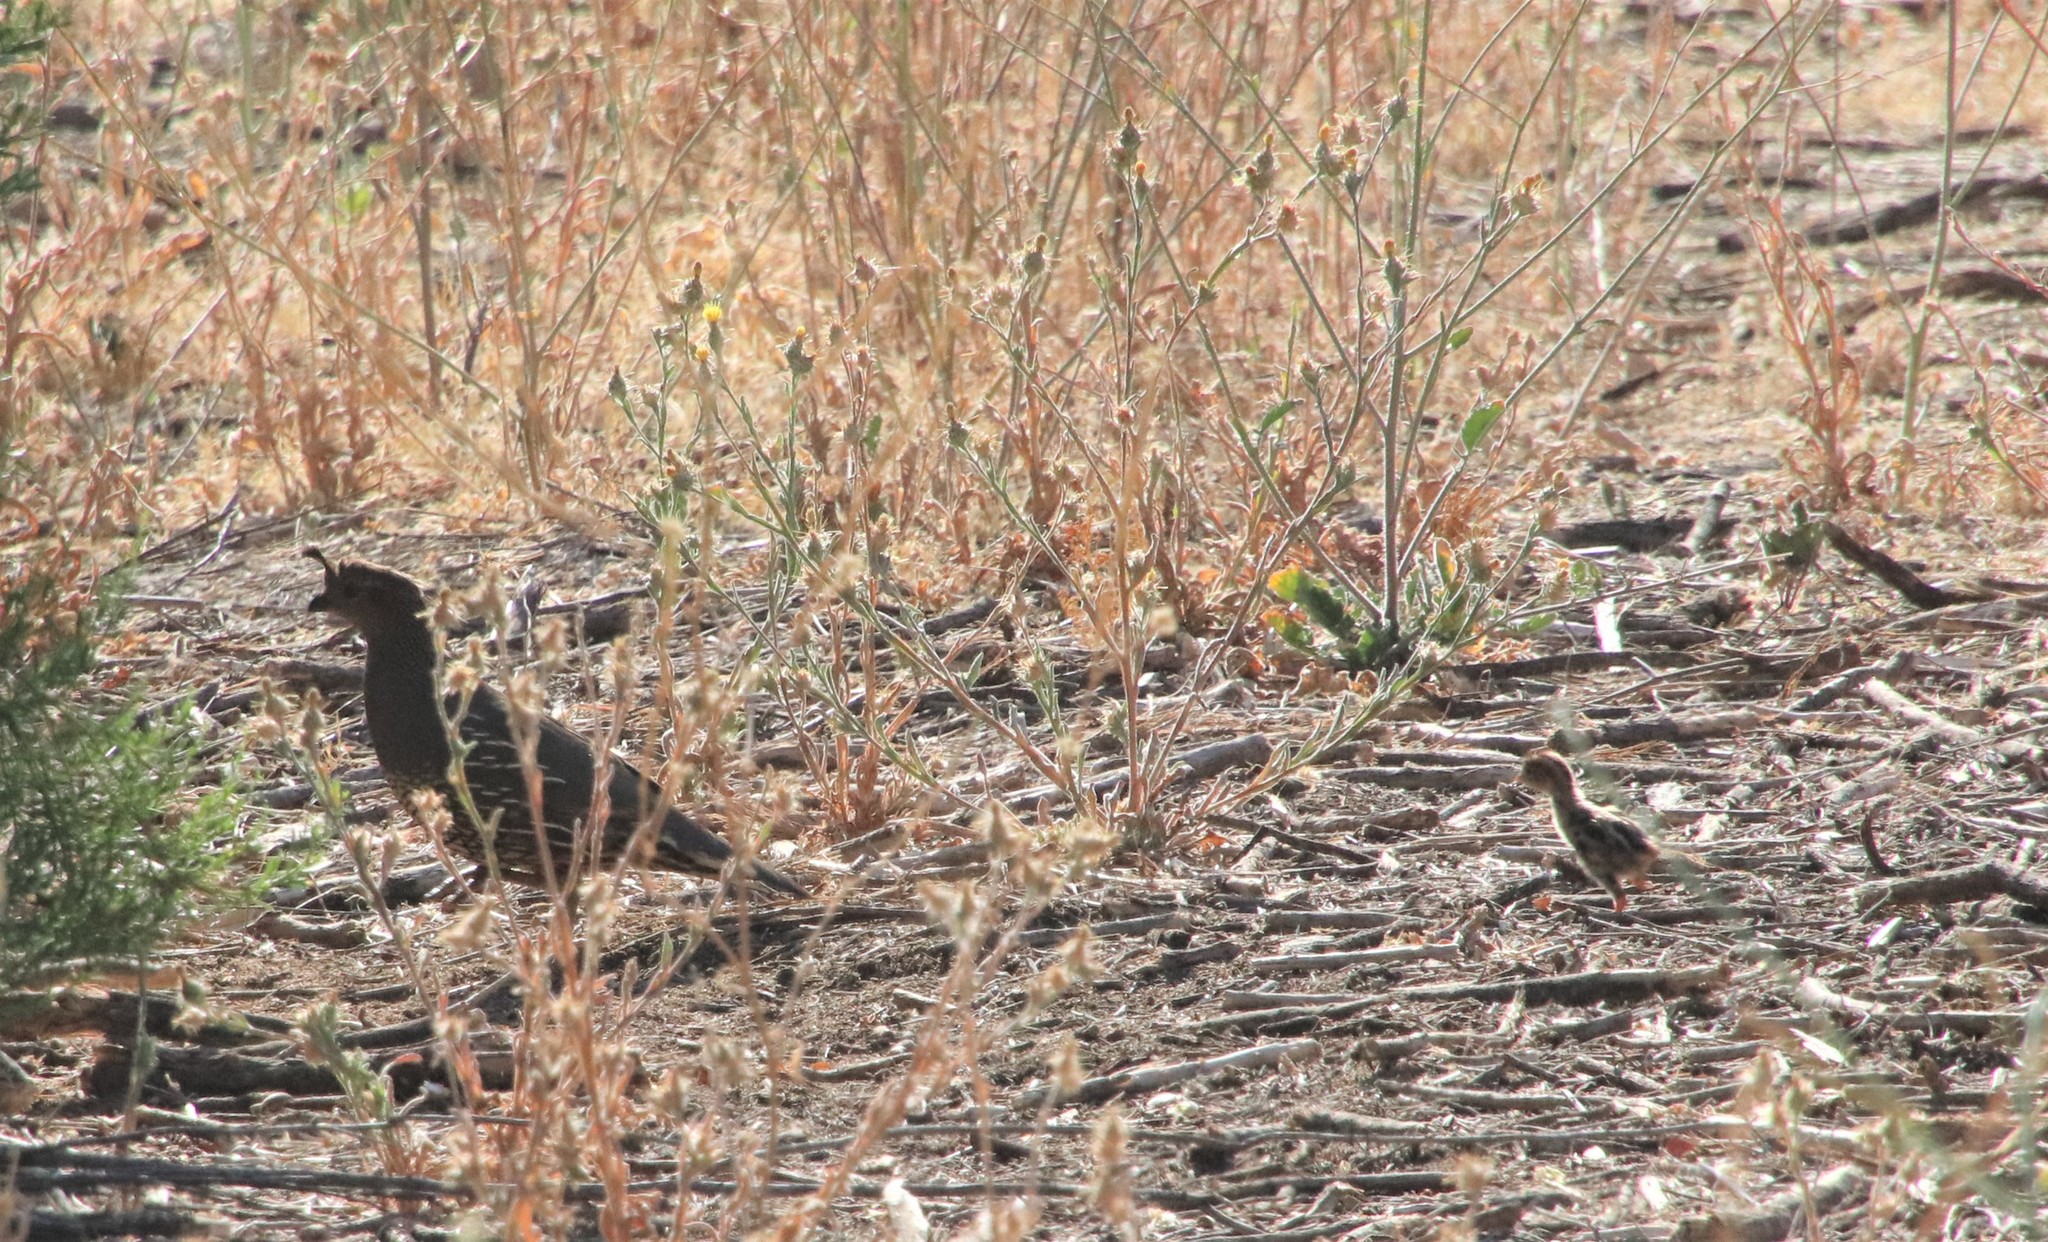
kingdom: Animalia
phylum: Chordata
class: Aves
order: Galliformes
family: Odontophoridae
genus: Callipepla
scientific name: Callipepla californica
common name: California quail
